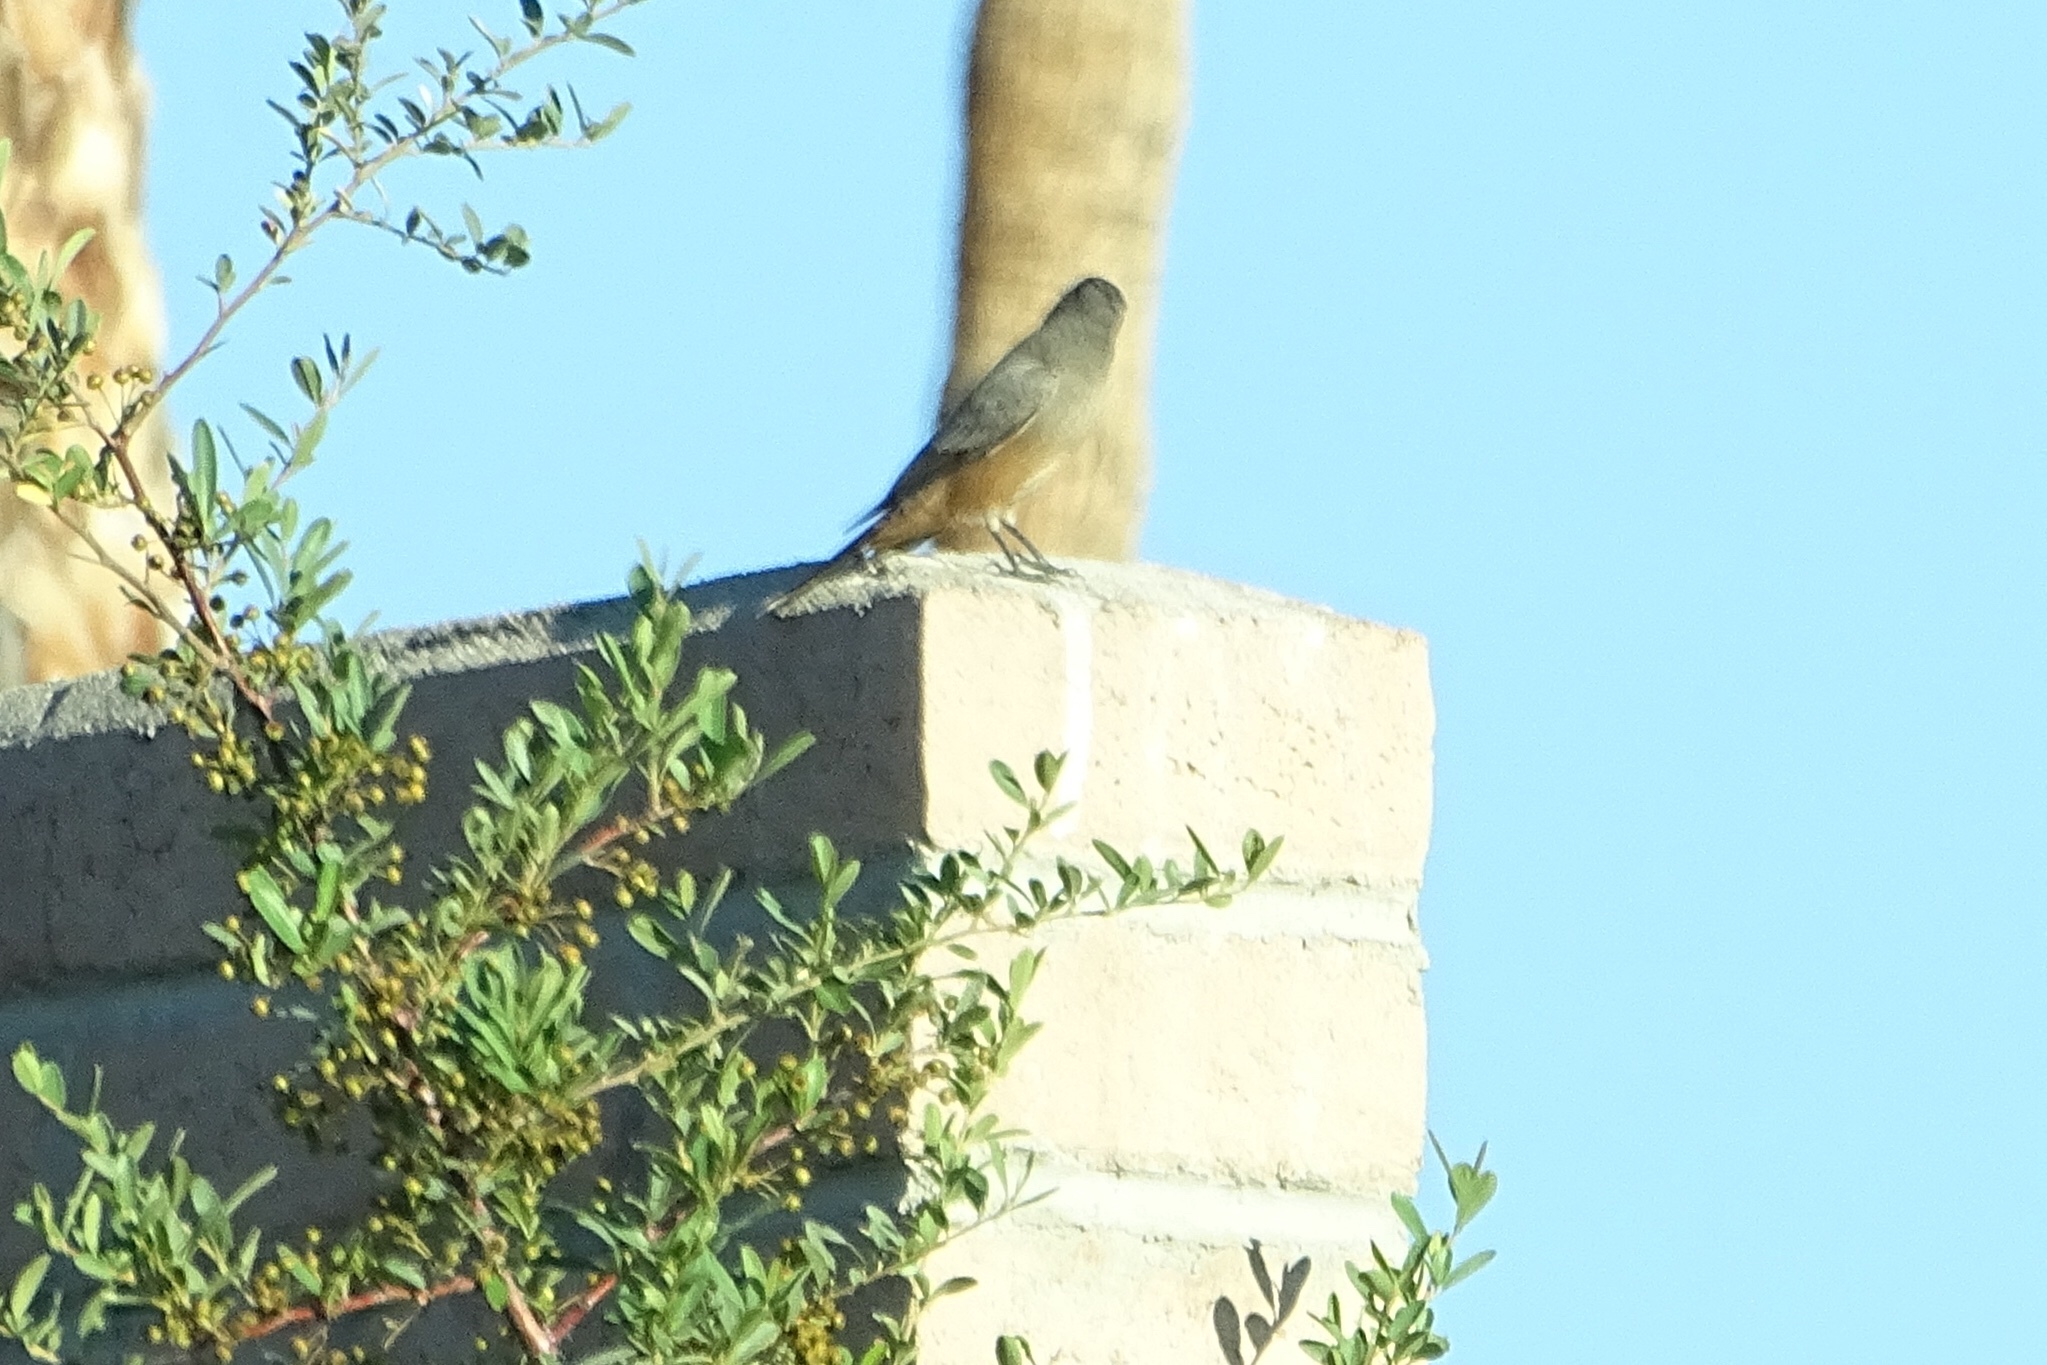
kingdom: Animalia
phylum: Chordata
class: Aves
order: Passeriformes
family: Tyrannidae
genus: Sayornis
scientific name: Sayornis saya
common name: Say's phoebe
